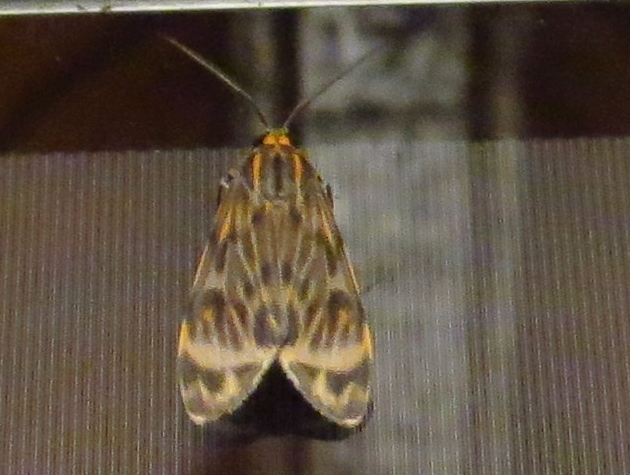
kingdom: Animalia
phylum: Arthropoda
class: Insecta
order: Lepidoptera
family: Erebidae
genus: Eucereon
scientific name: Eucereon aroa
